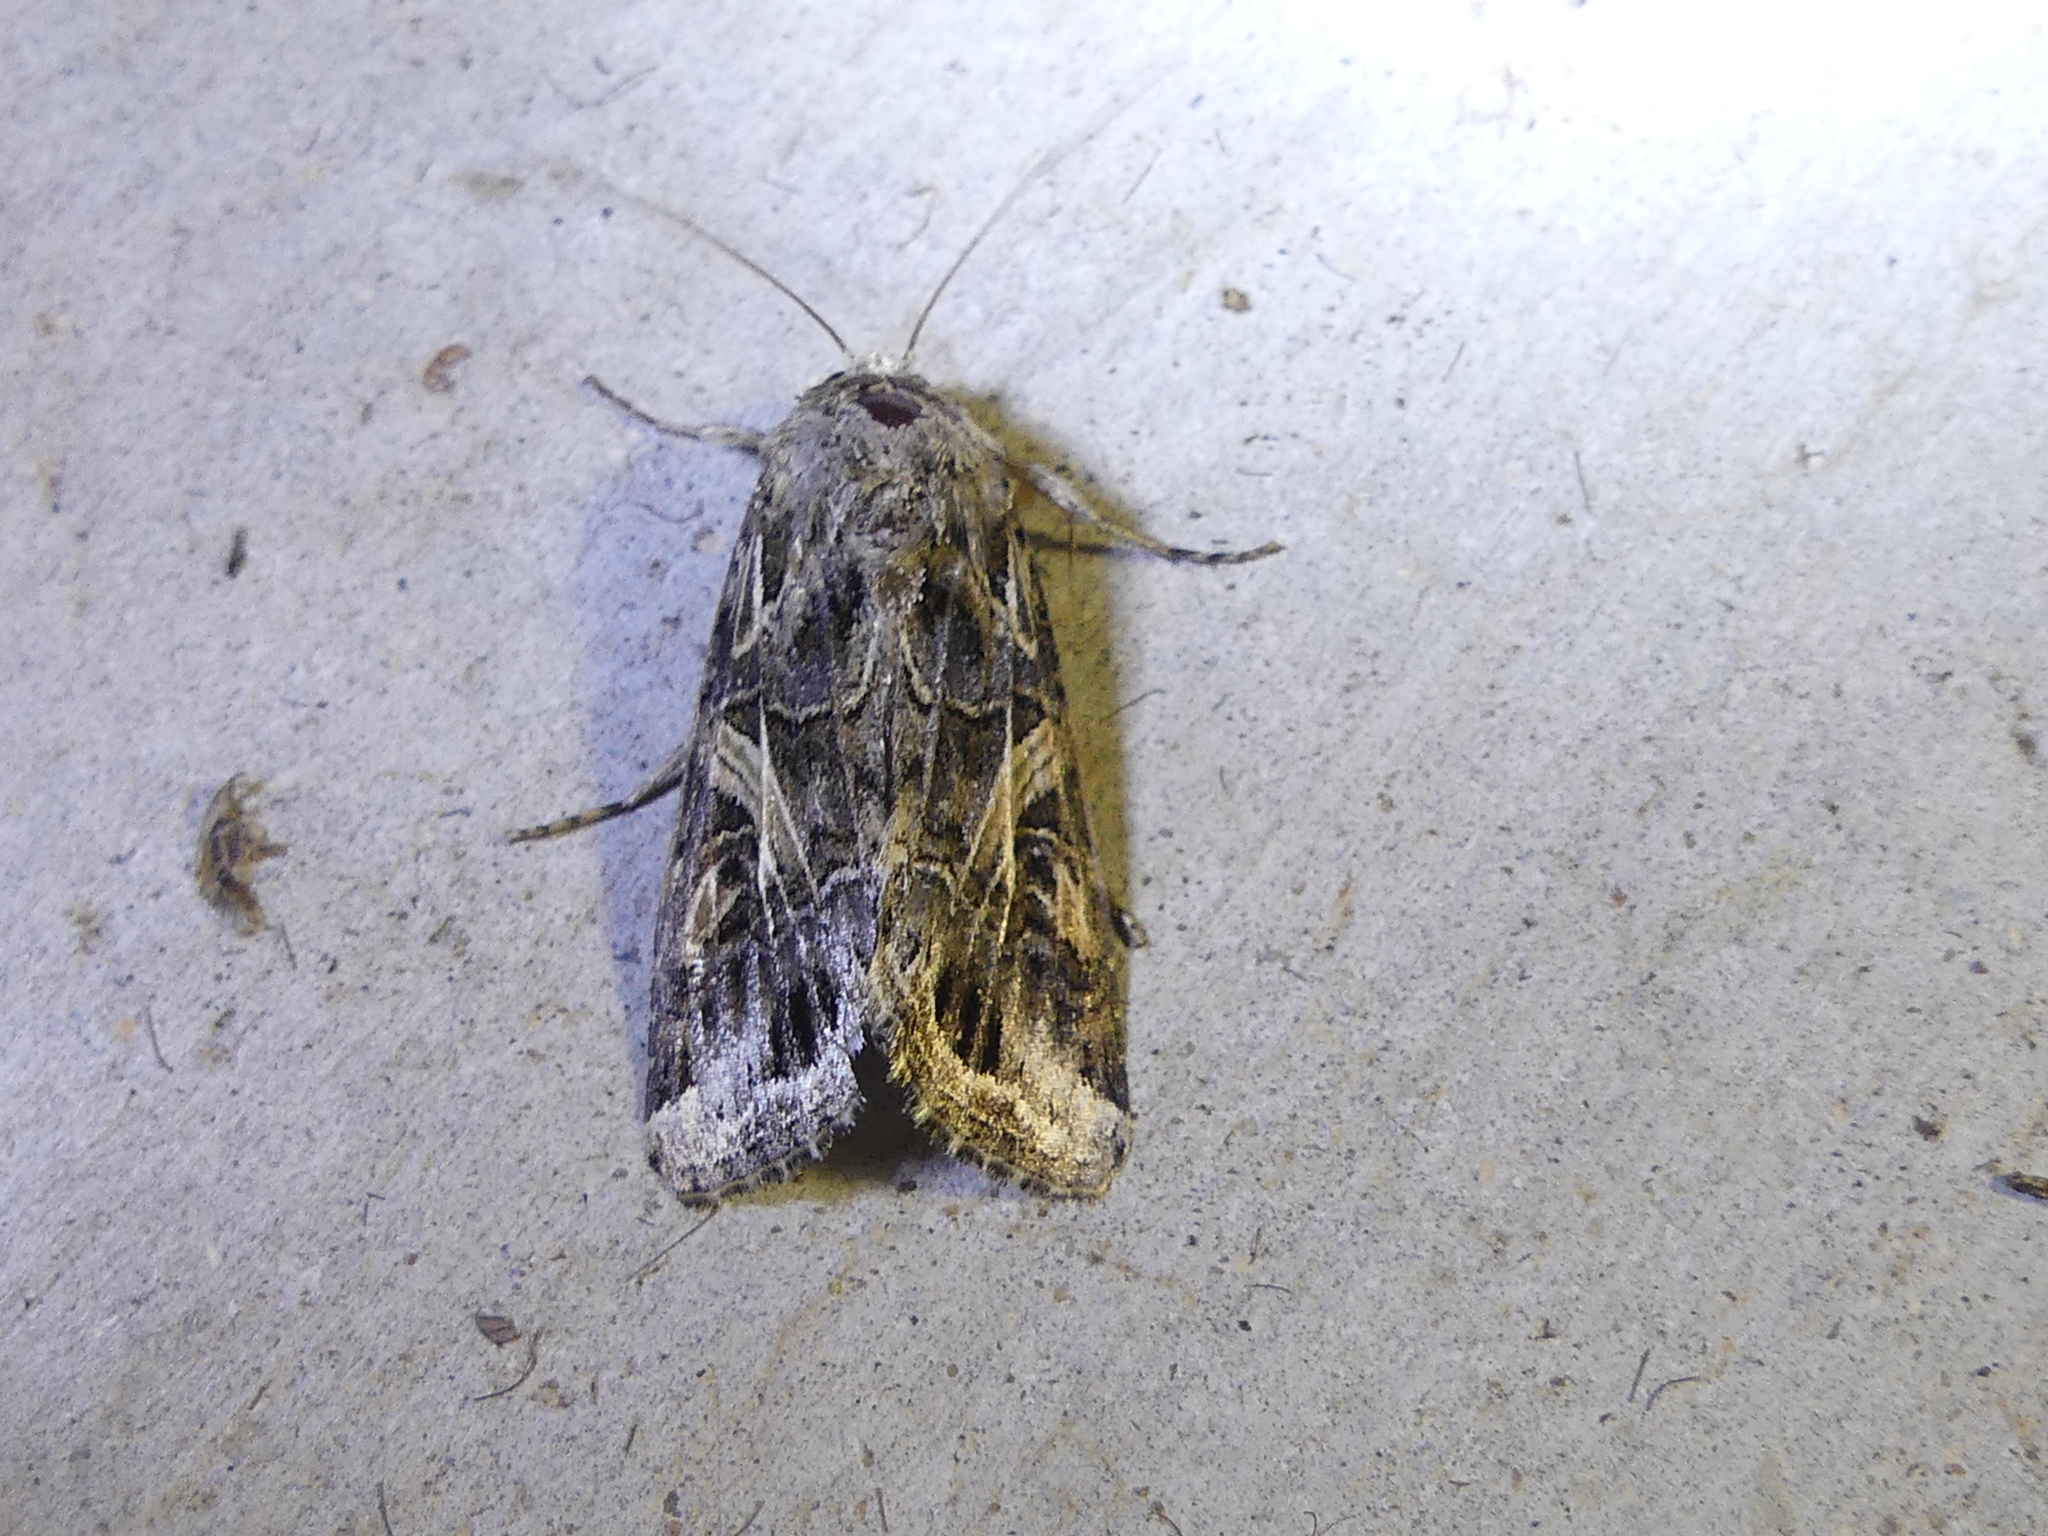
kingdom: Animalia
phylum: Arthropoda
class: Insecta
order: Lepidoptera
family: Noctuidae
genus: Spodoptera
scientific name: Spodoptera ornithogalli
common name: Yellow-striped armyworm
